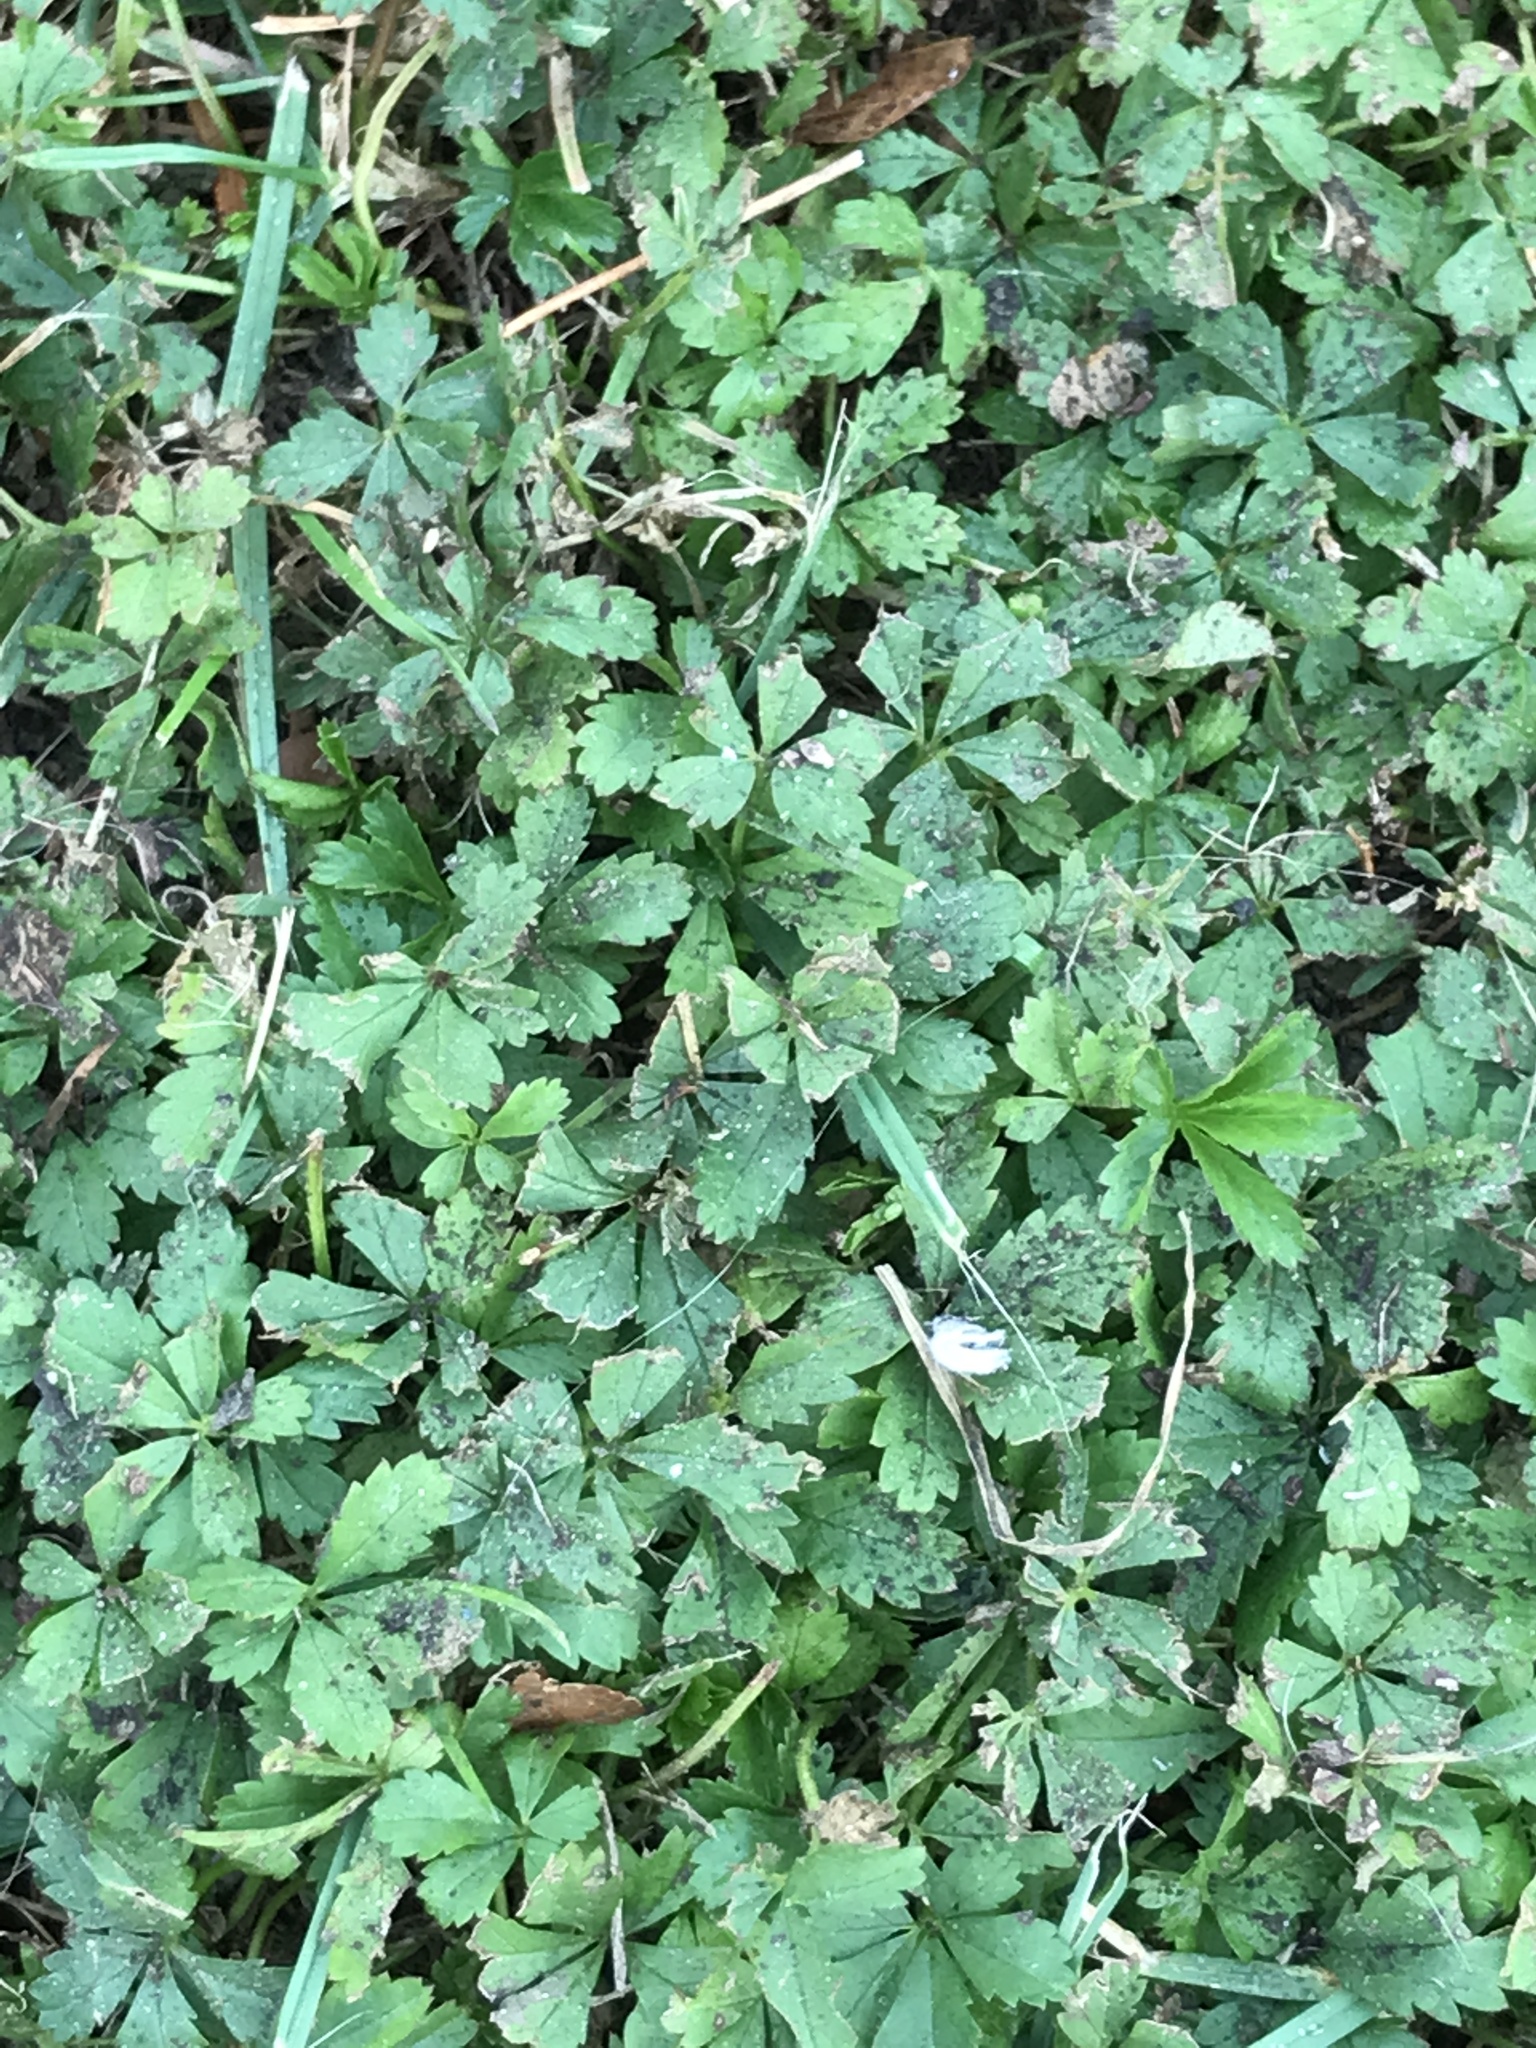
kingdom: Plantae
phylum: Tracheophyta
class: Magnoliopsida
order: Rosales
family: Rosaceae
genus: Potentilla
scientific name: Potentilla reptans
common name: Creeping cinquefoil
